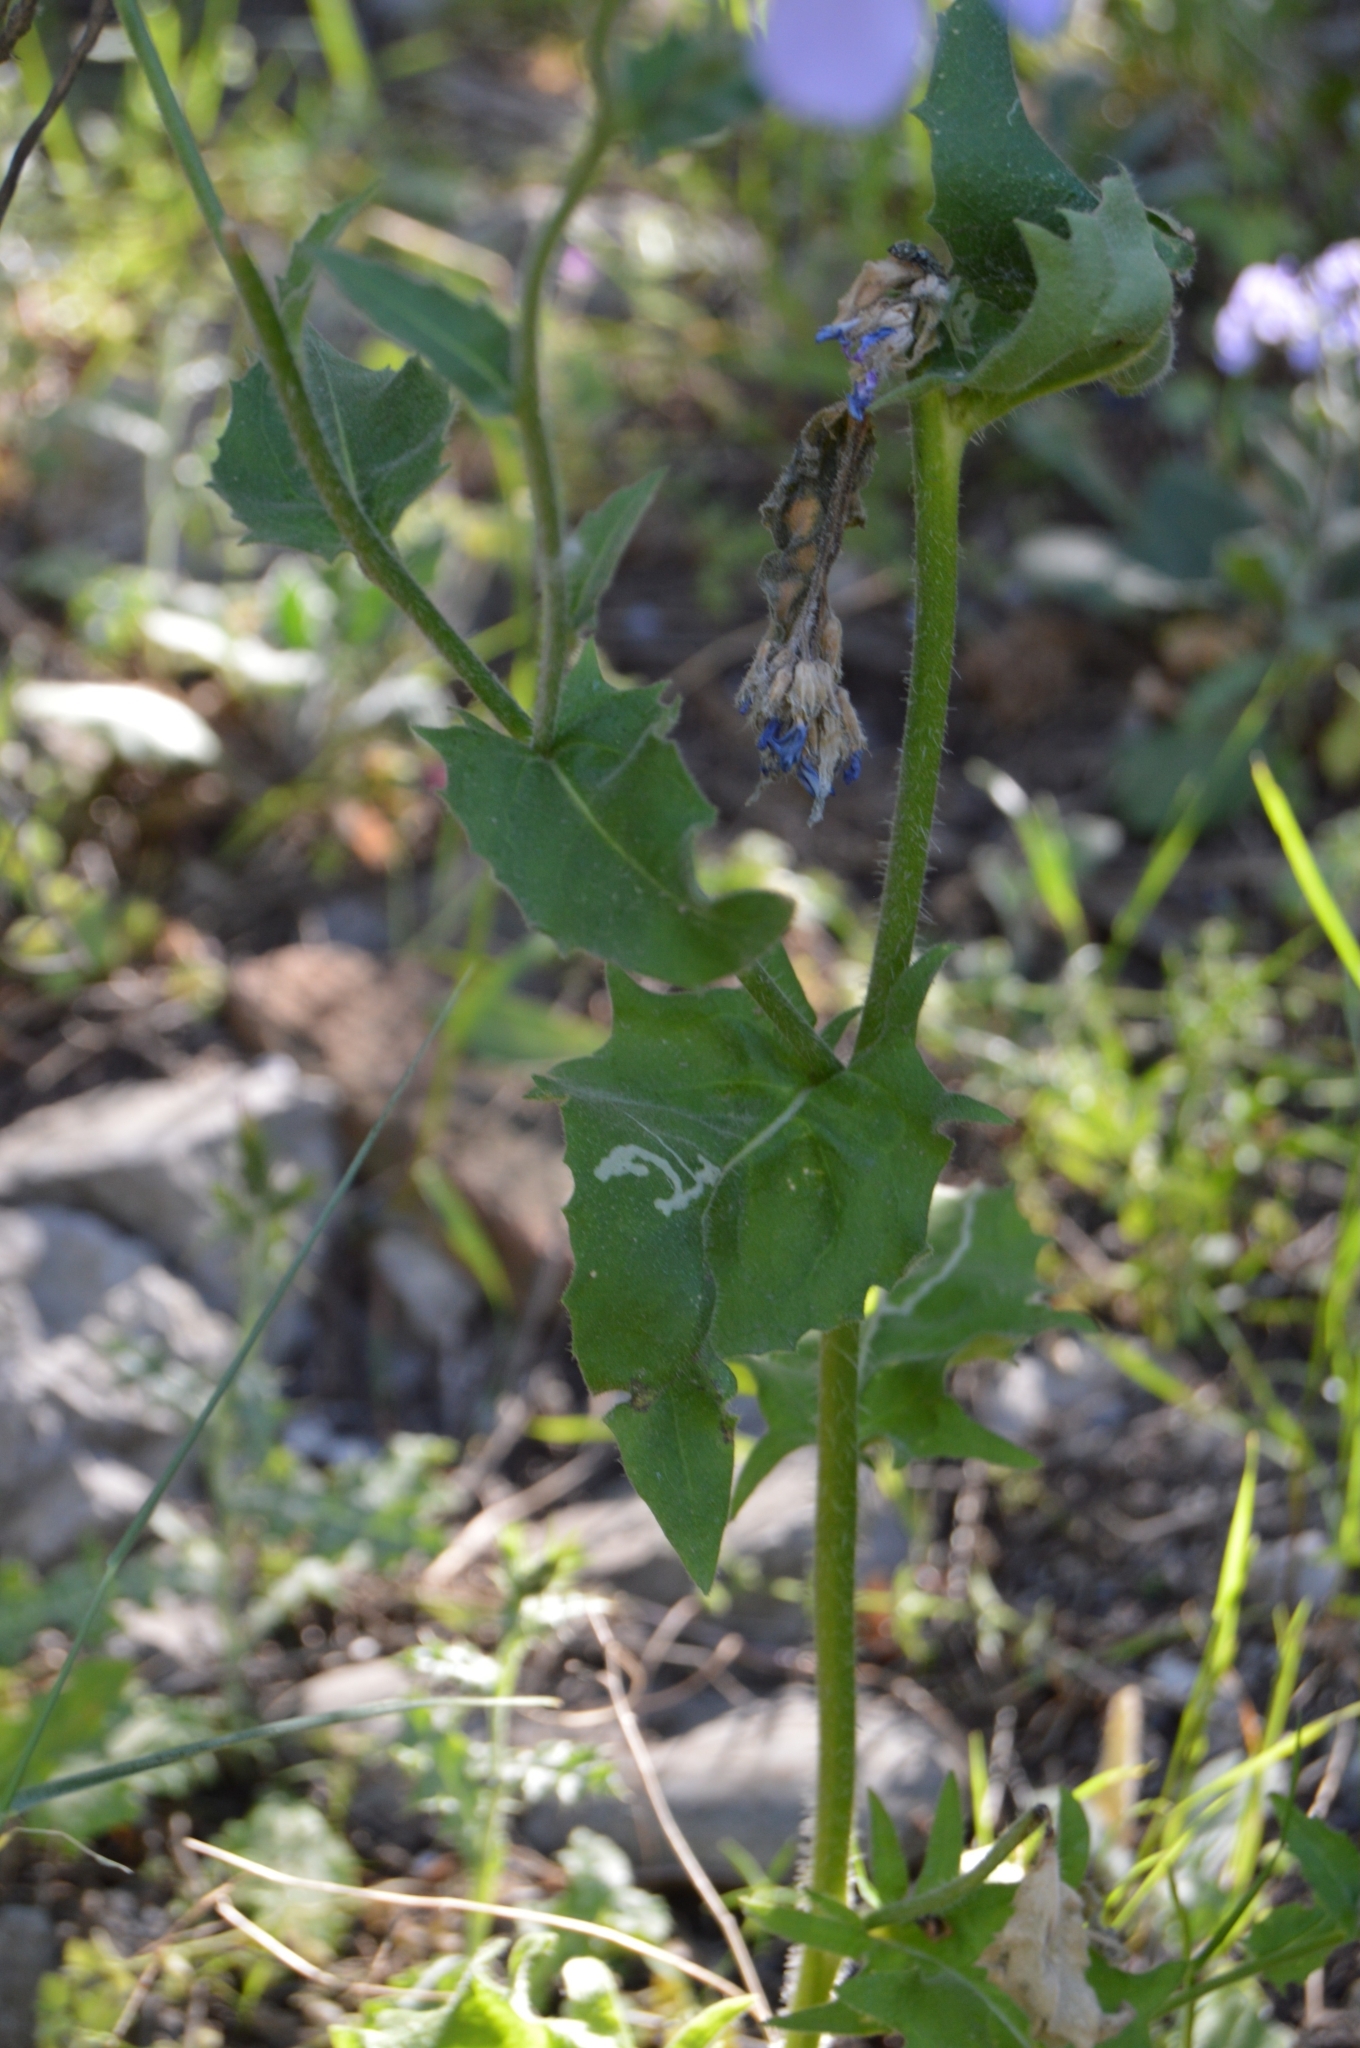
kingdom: Plantae
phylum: Tracheophyta
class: Magnoliopsida
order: Brassicales
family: Brassicaceae
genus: Hesperis
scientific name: Hesperis steveniana
